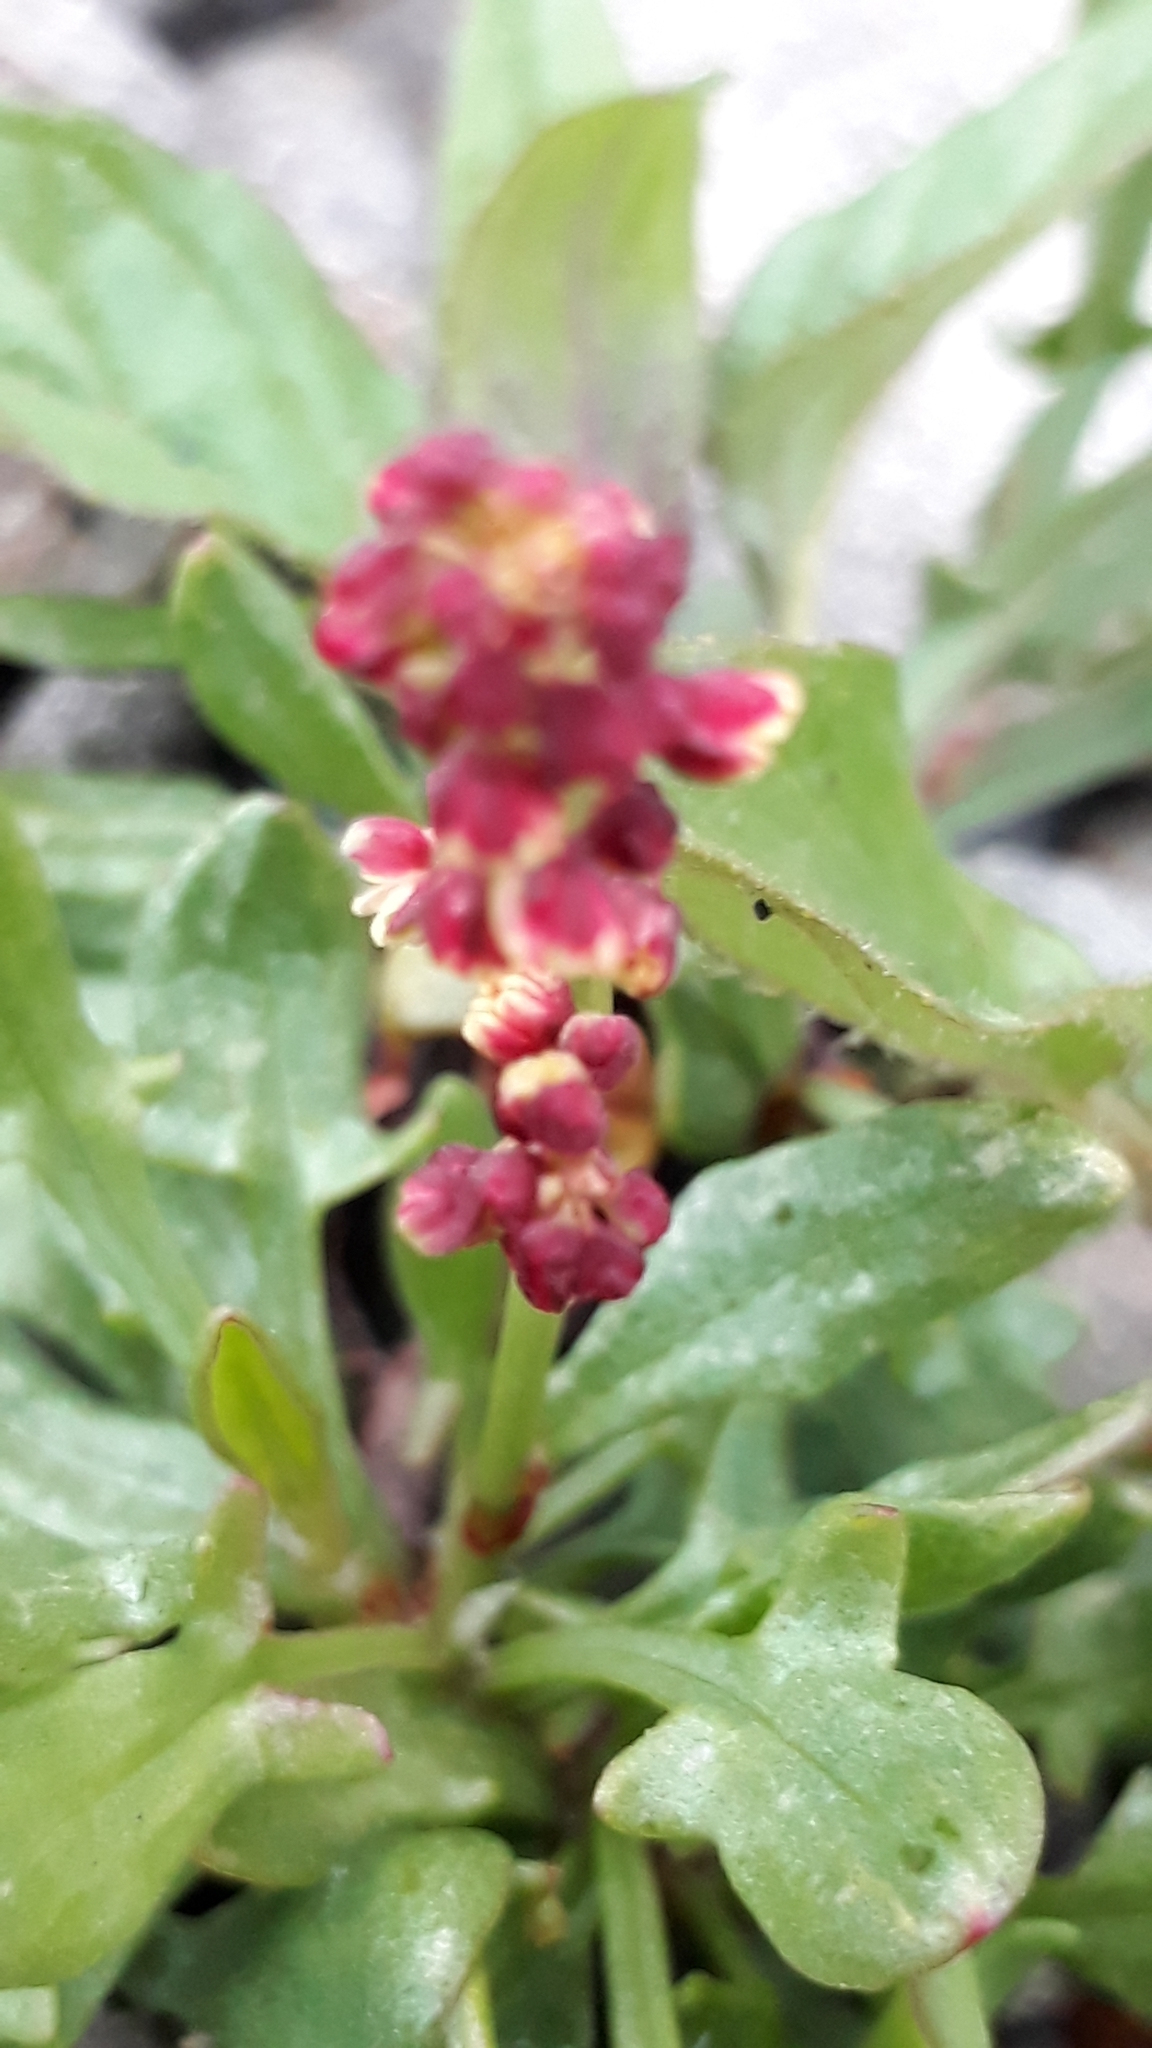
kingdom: Plantae
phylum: Tracheophyta
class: Magnoliopsida
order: Caryophyllales
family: Polygonaceae
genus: Rumex
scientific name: Rumex acetosella
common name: Common sheep sorrel
